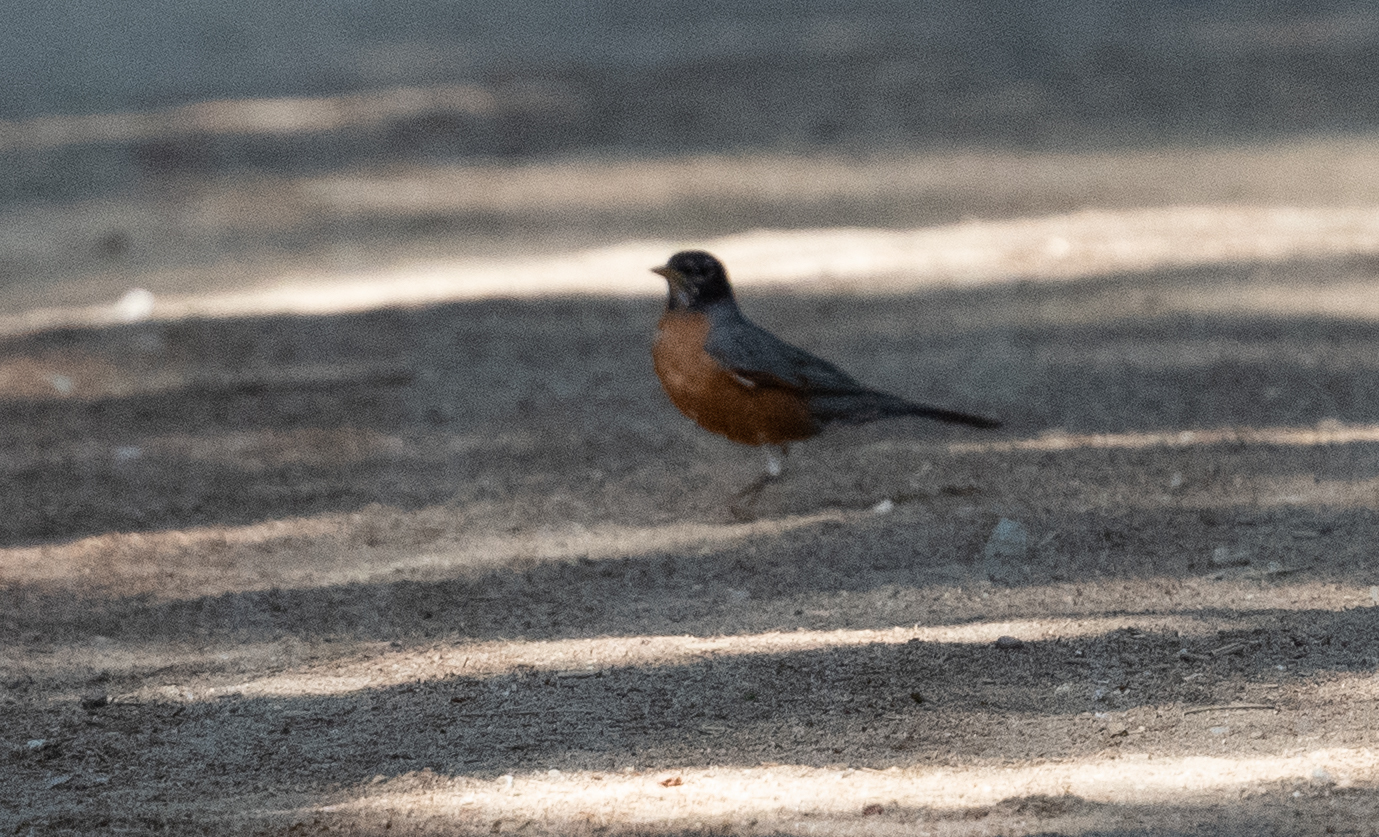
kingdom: Animalia
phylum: Chordata
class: Aves
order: Passeriformes
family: Turdidae
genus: Turdus
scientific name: Turdus migratorius
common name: American robin
